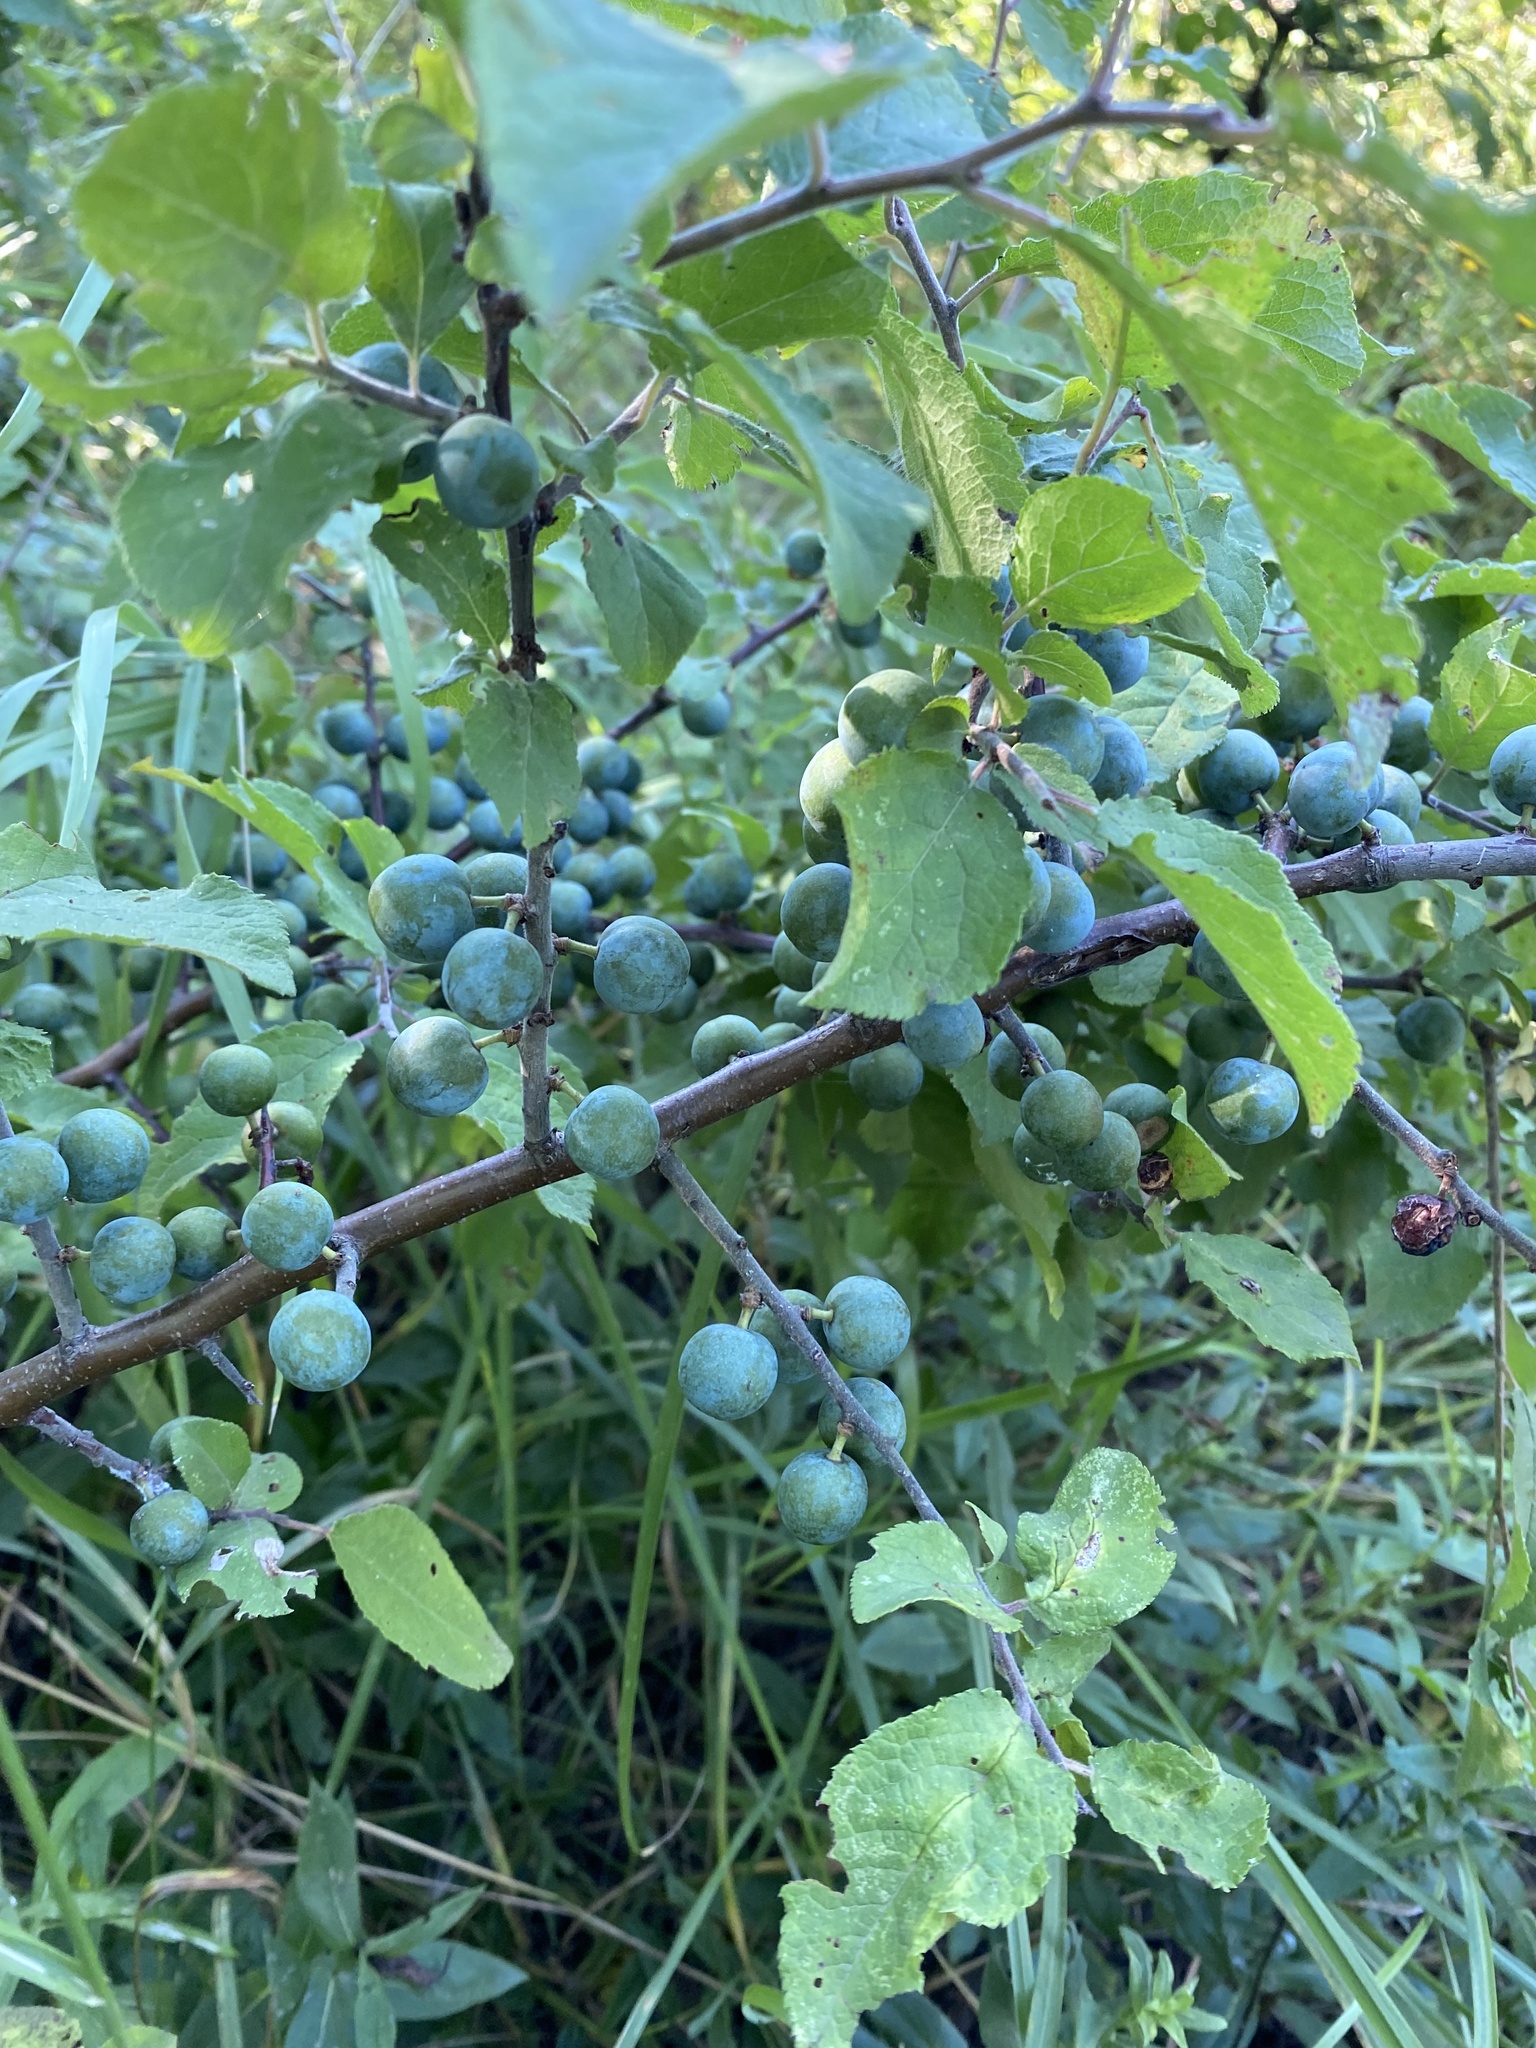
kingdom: Plantae
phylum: Tracheophyta
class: Magnoliopsida
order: Rosales
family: Rosaceae
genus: Prunus
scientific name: Prunus spinosa
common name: Blackthorn
